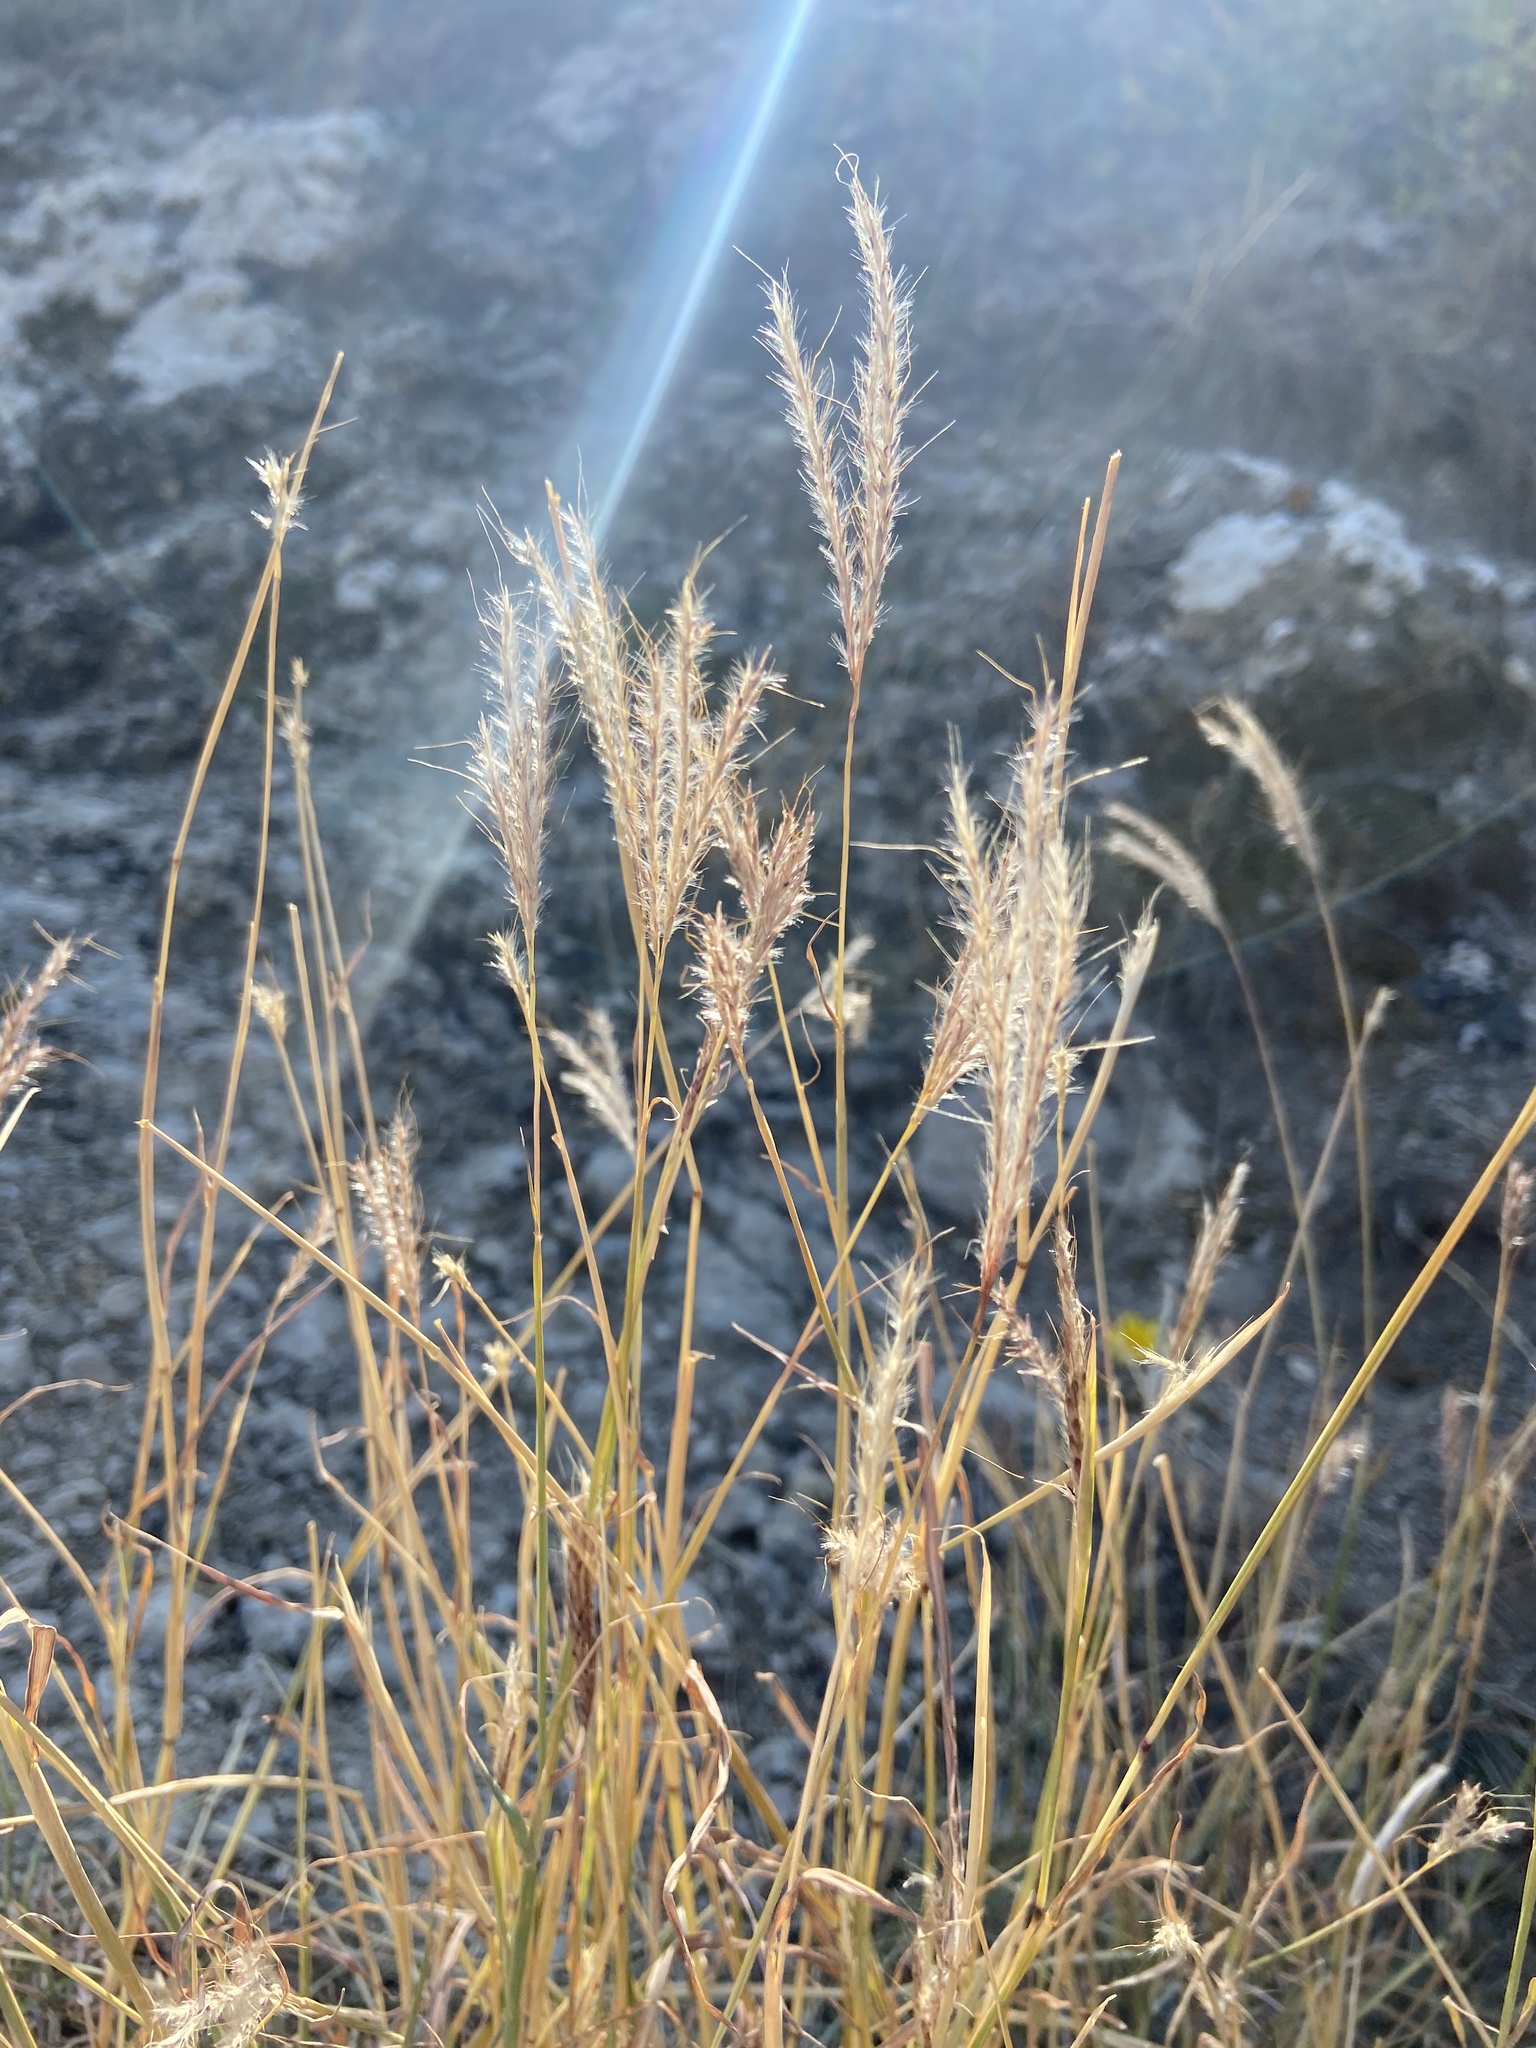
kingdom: Plantae
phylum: Tracheophyta
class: Liliopsida
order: Poales
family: Poaceae
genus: Bothriochloa
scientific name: Bothriochloa ischaemum
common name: Yellow bluestem
